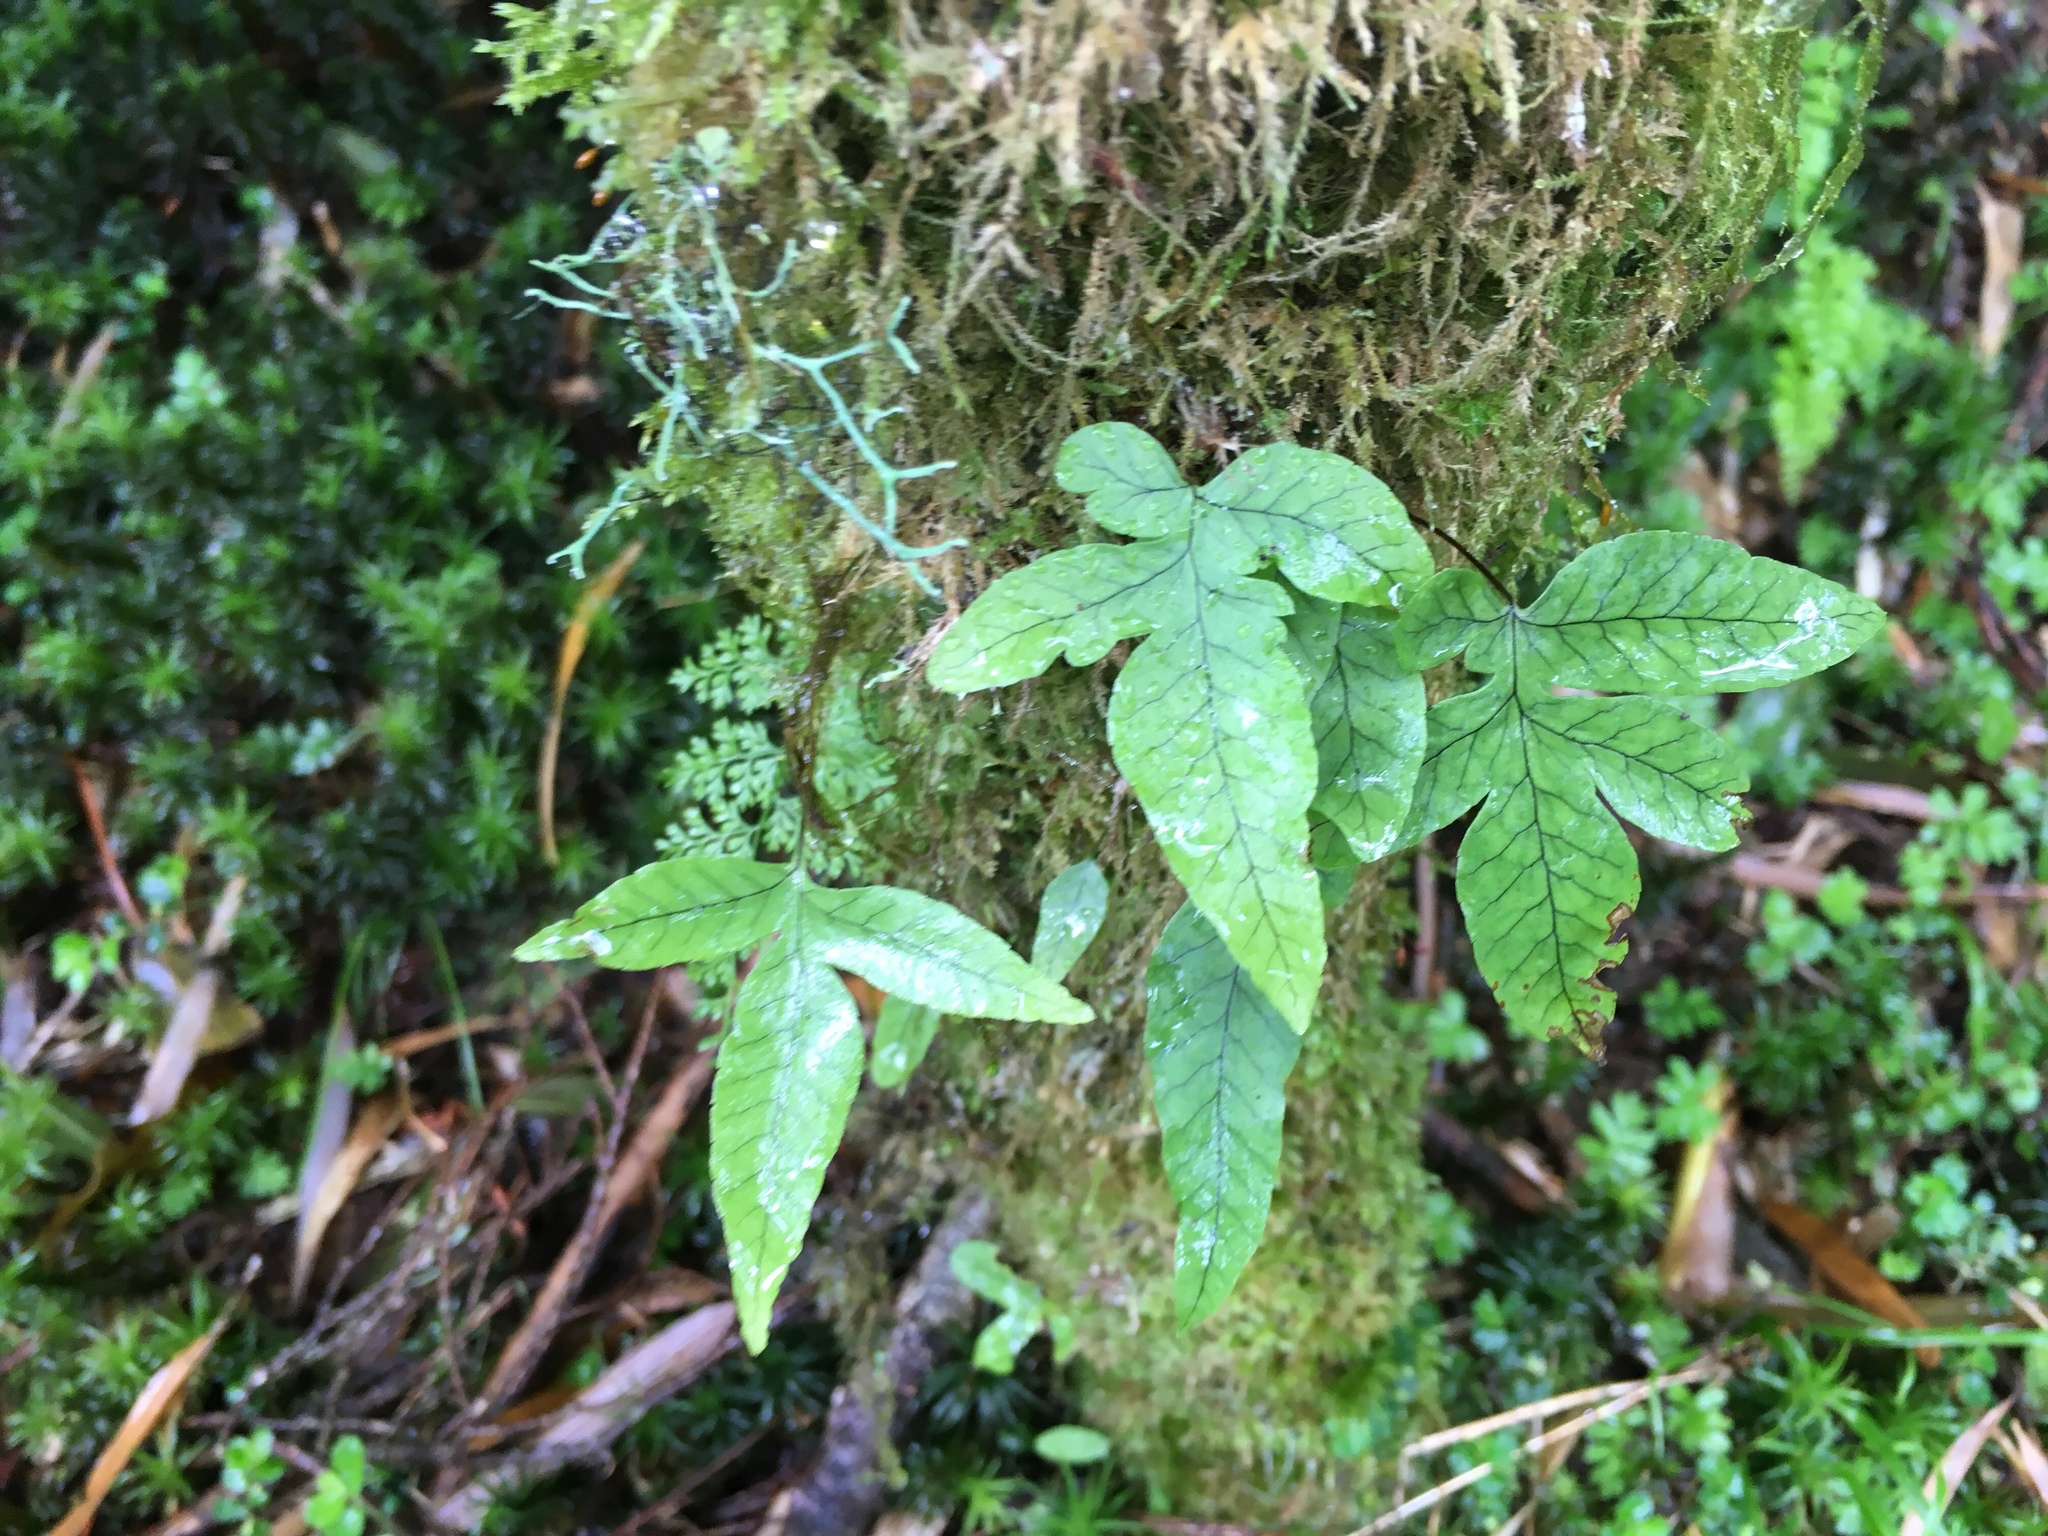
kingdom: Plantae
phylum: Tracheophyta
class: Polypodiopsida
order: Polypodiales
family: Polypodiaceae
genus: Selliguea
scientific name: Selliguea quasidivaricata
